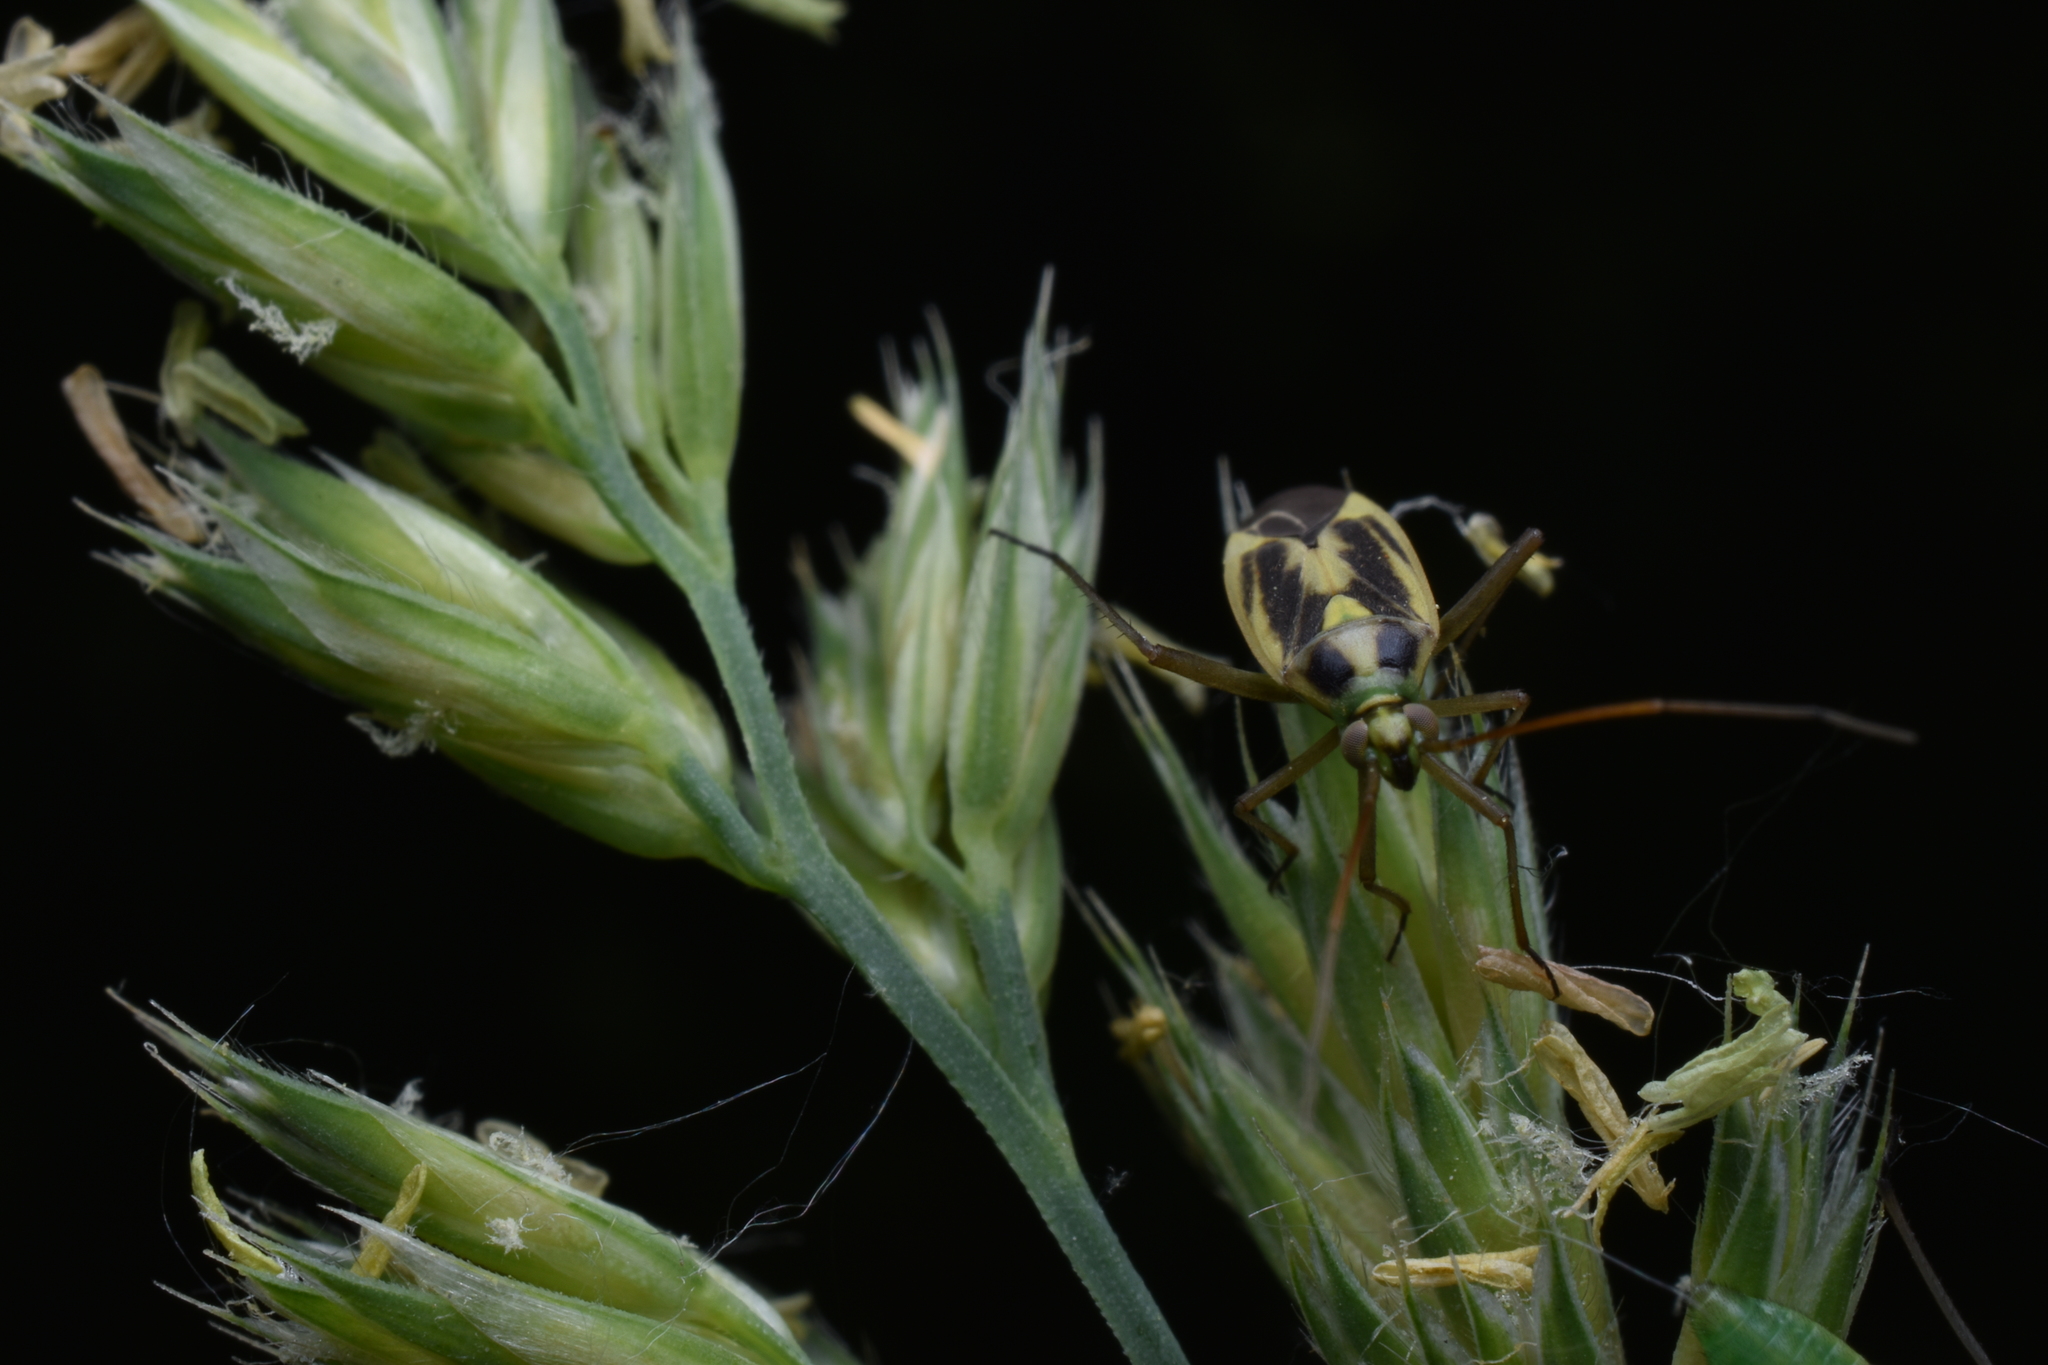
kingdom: Animalia
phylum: Arthropoda
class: Insecta
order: Hemiptera
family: Miridae
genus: Stenotus
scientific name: Stenotus binotatus
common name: Plant bug
